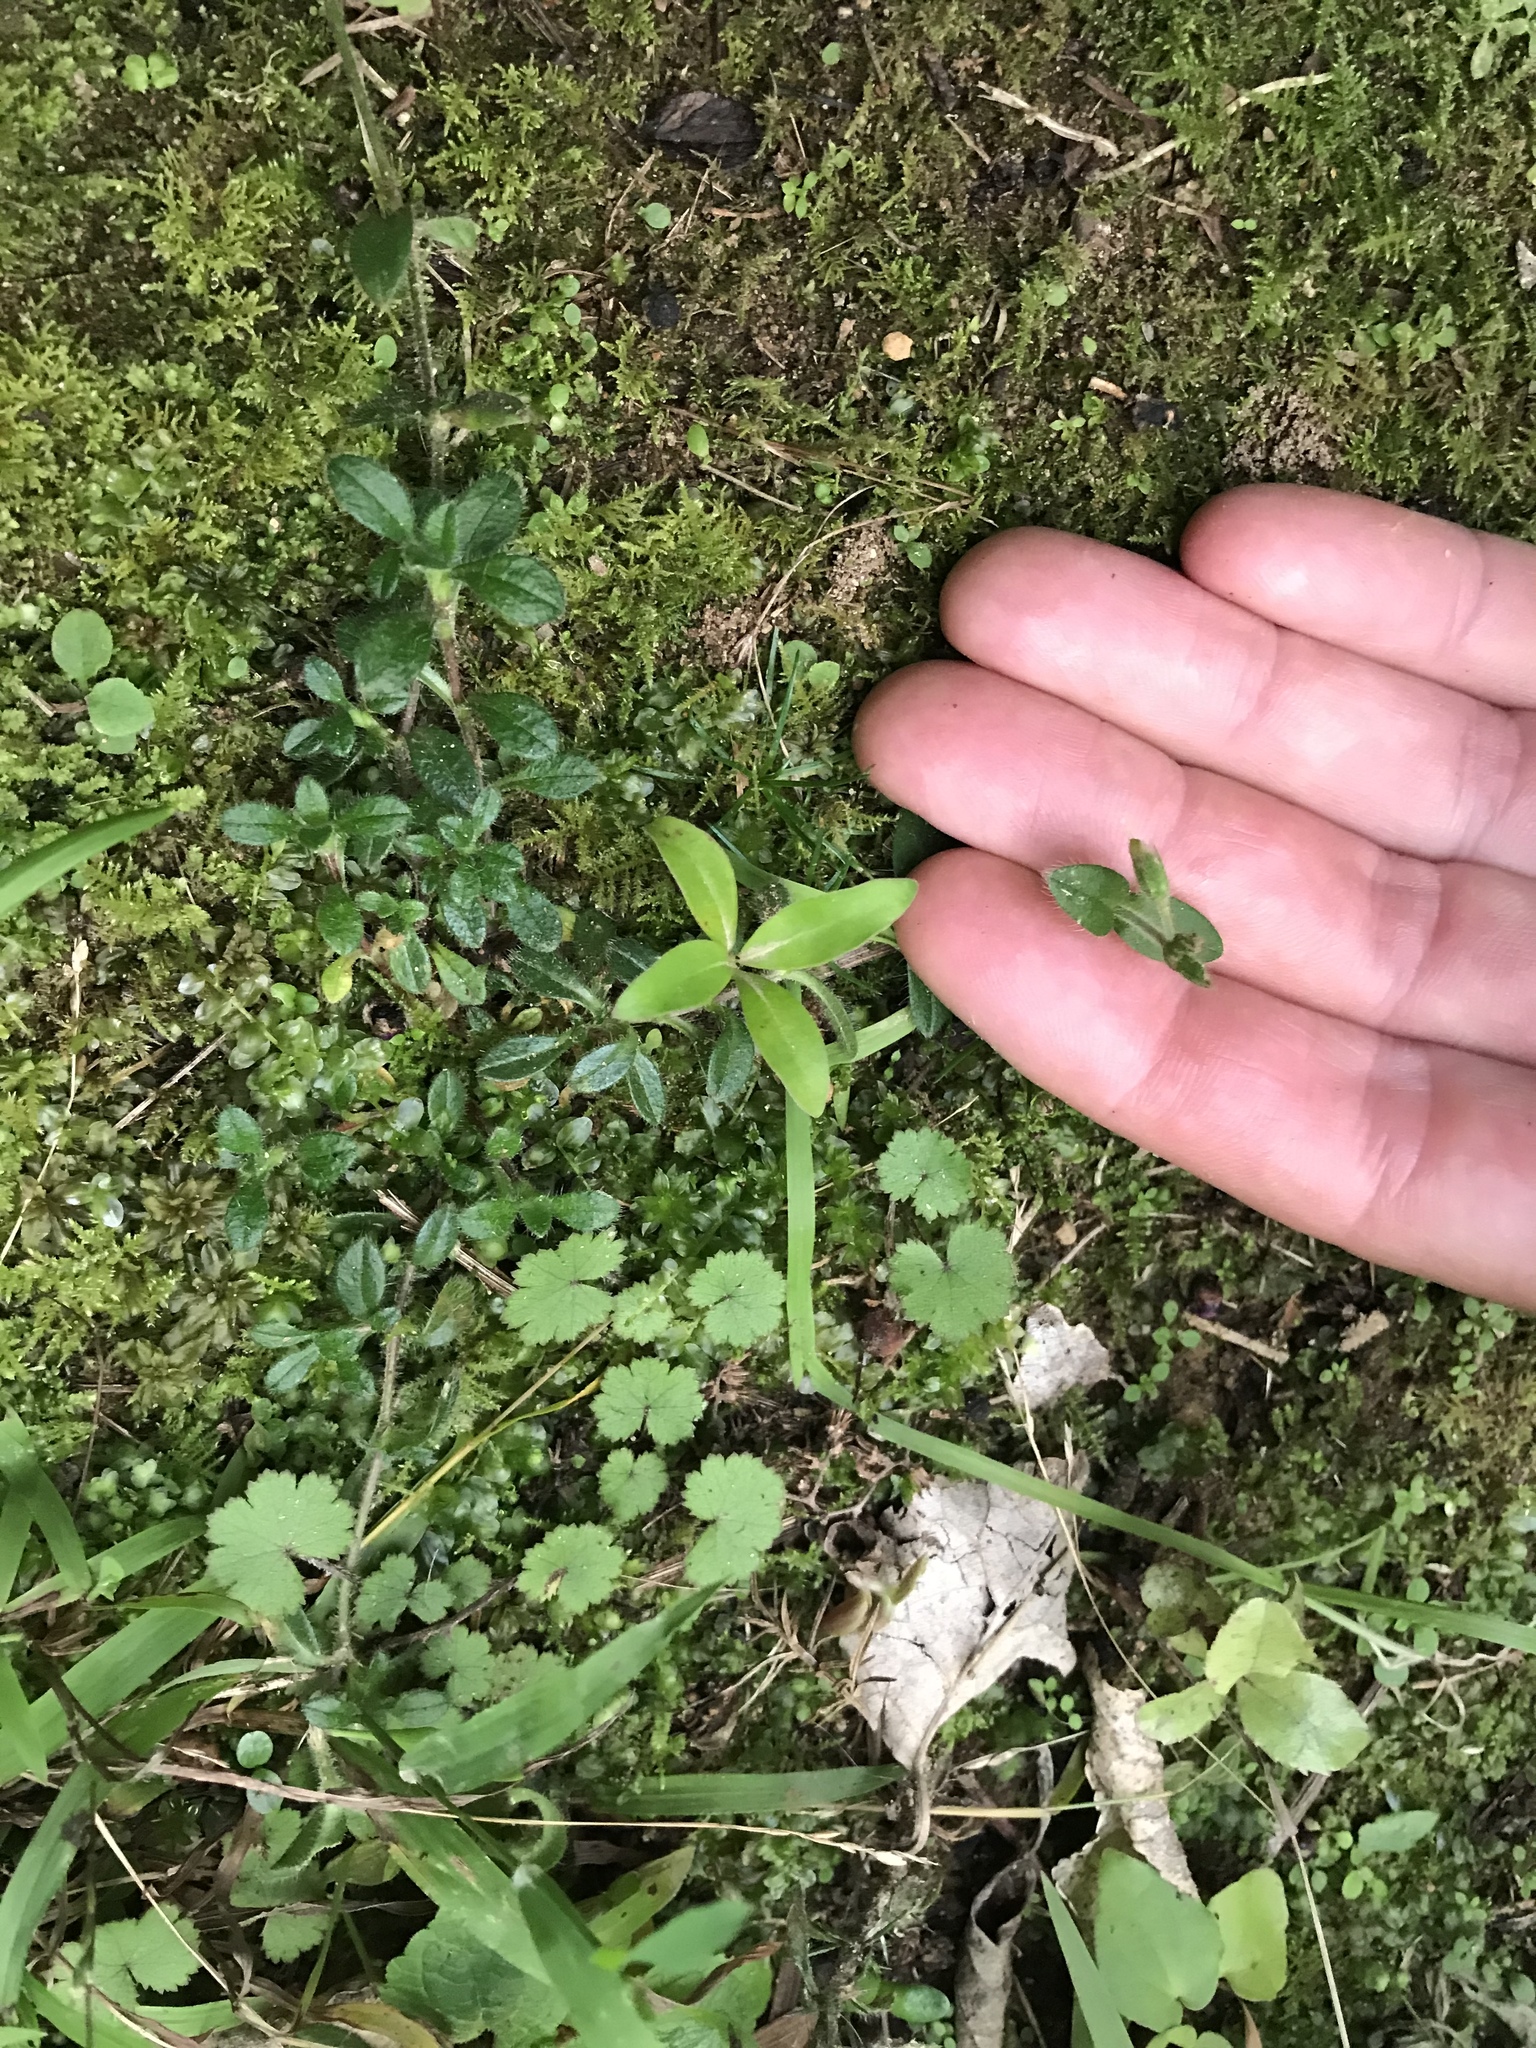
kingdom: Plantae
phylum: Tracheophyta
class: Magnoliopsida
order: Caryophyllales
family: Caryophyllaceae
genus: Cerastium
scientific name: Cerastium fontanum
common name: Common mouse-ear
